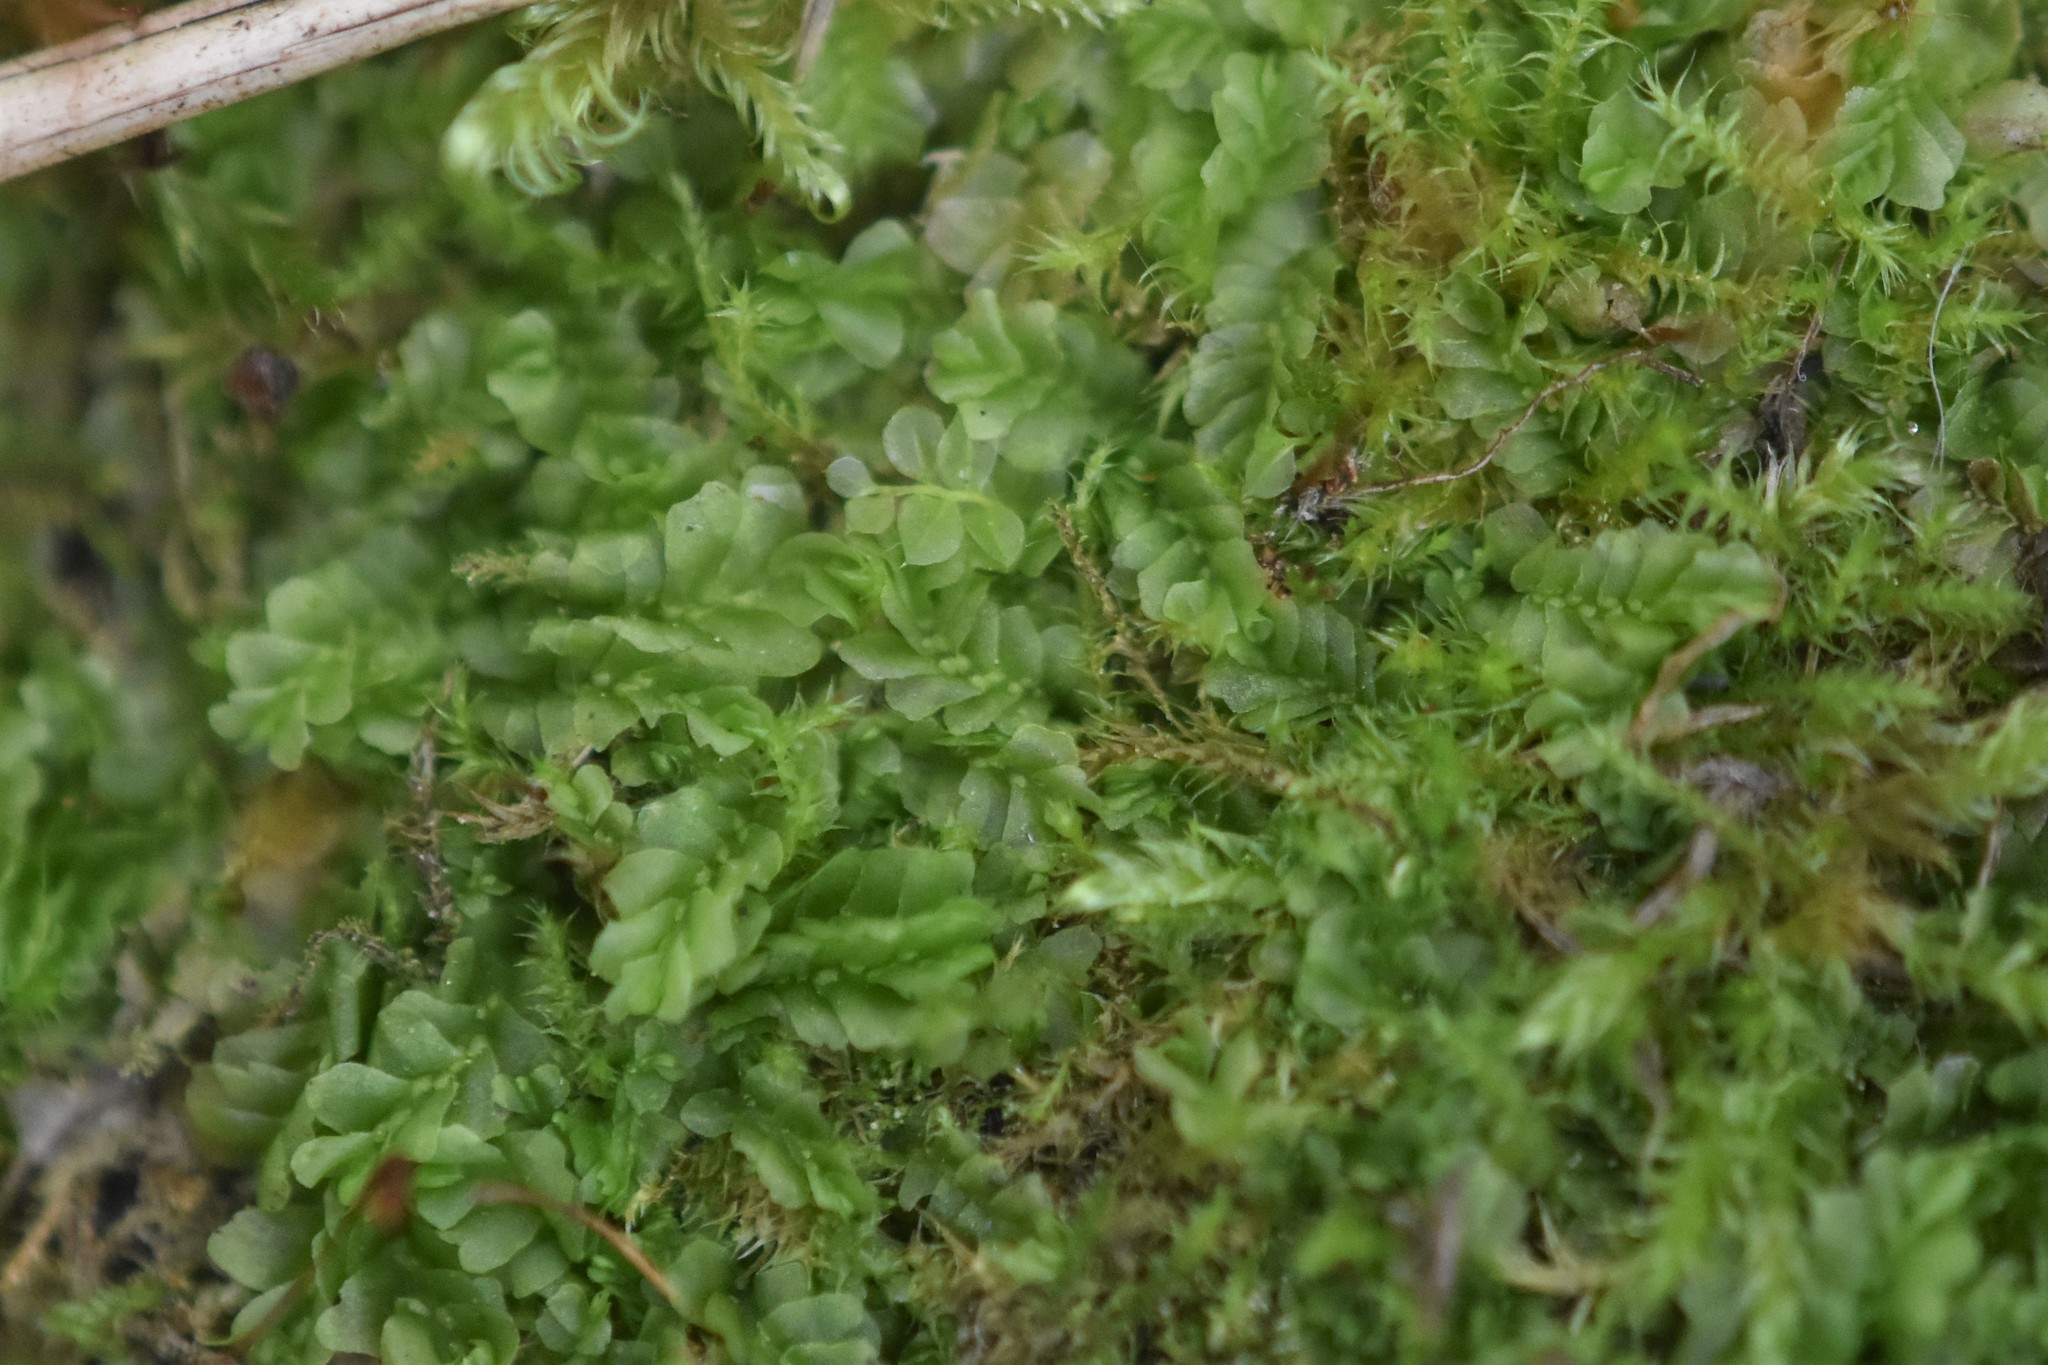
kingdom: Plantae
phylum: Marchantiophyta
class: Jungermanniopsida
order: Jungermanniales
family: Lophocoleaceae
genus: Lophocolea
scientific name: Lophocolea heterophylla
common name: Variable-leaved crestwort
